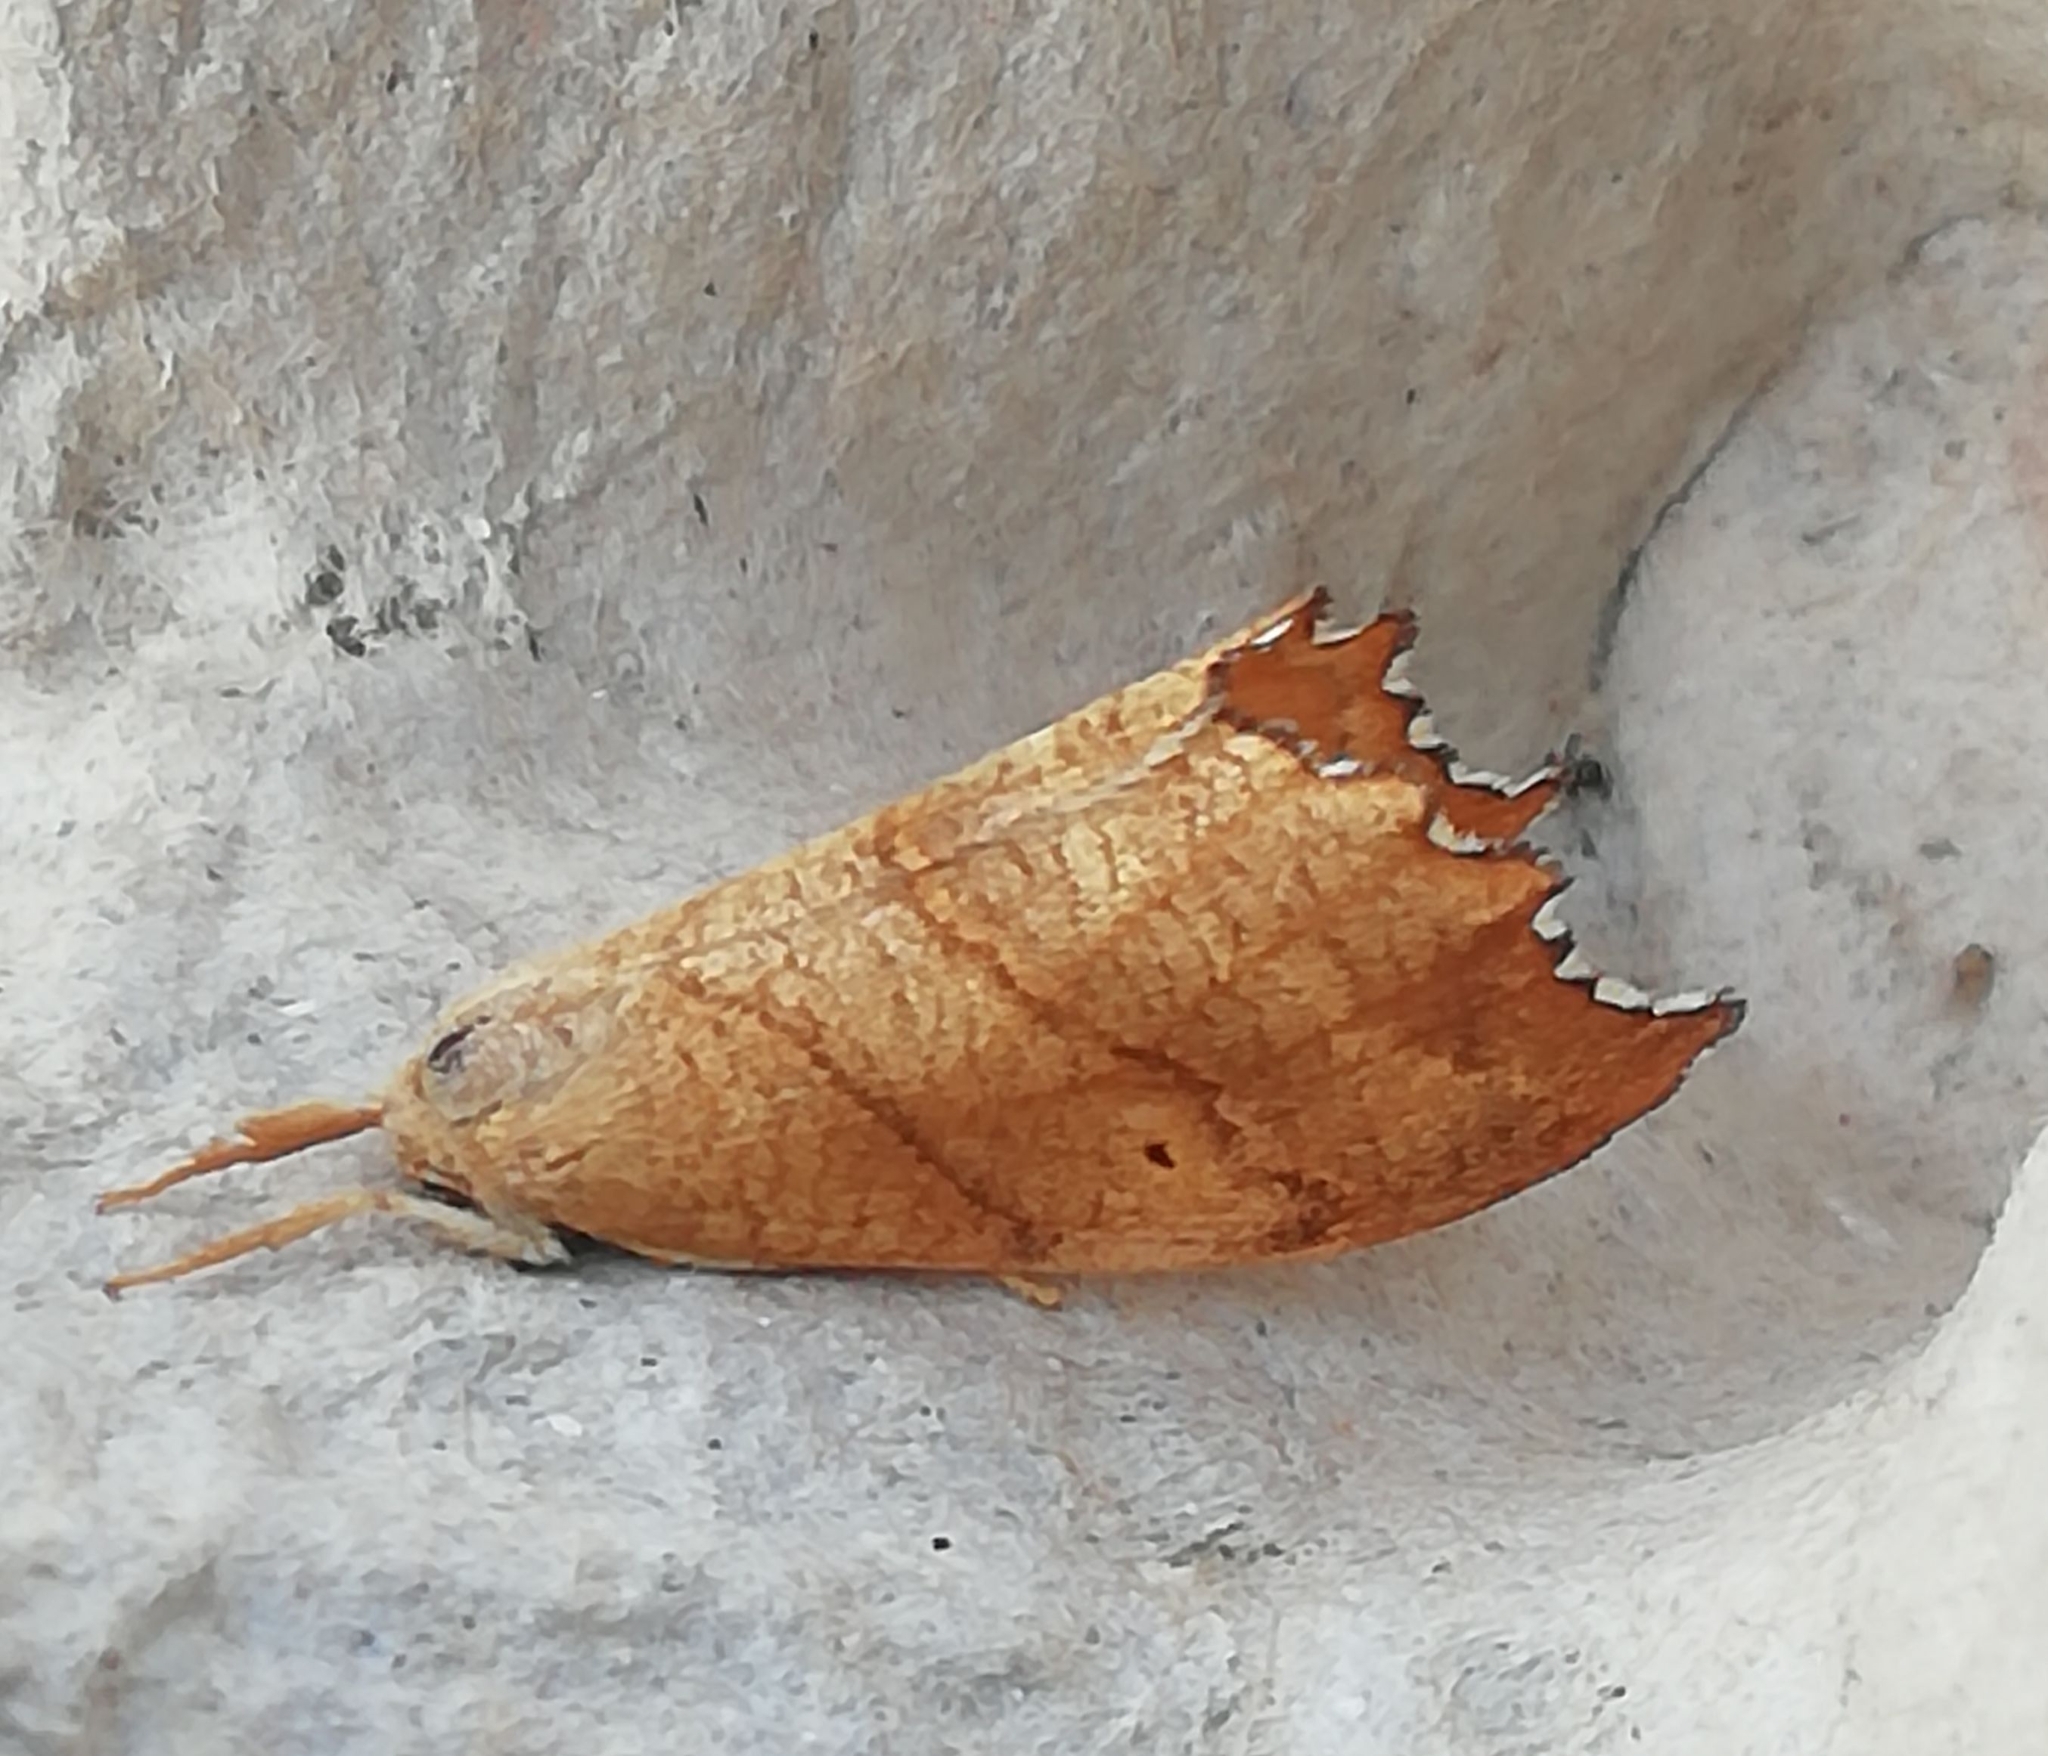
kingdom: Animalia
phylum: Arthropoda
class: Insecta
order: Lepidoptera
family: Drepanidae
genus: Falcaria
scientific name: Falcaria lacertinaria
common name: Scalloped hook-tip
